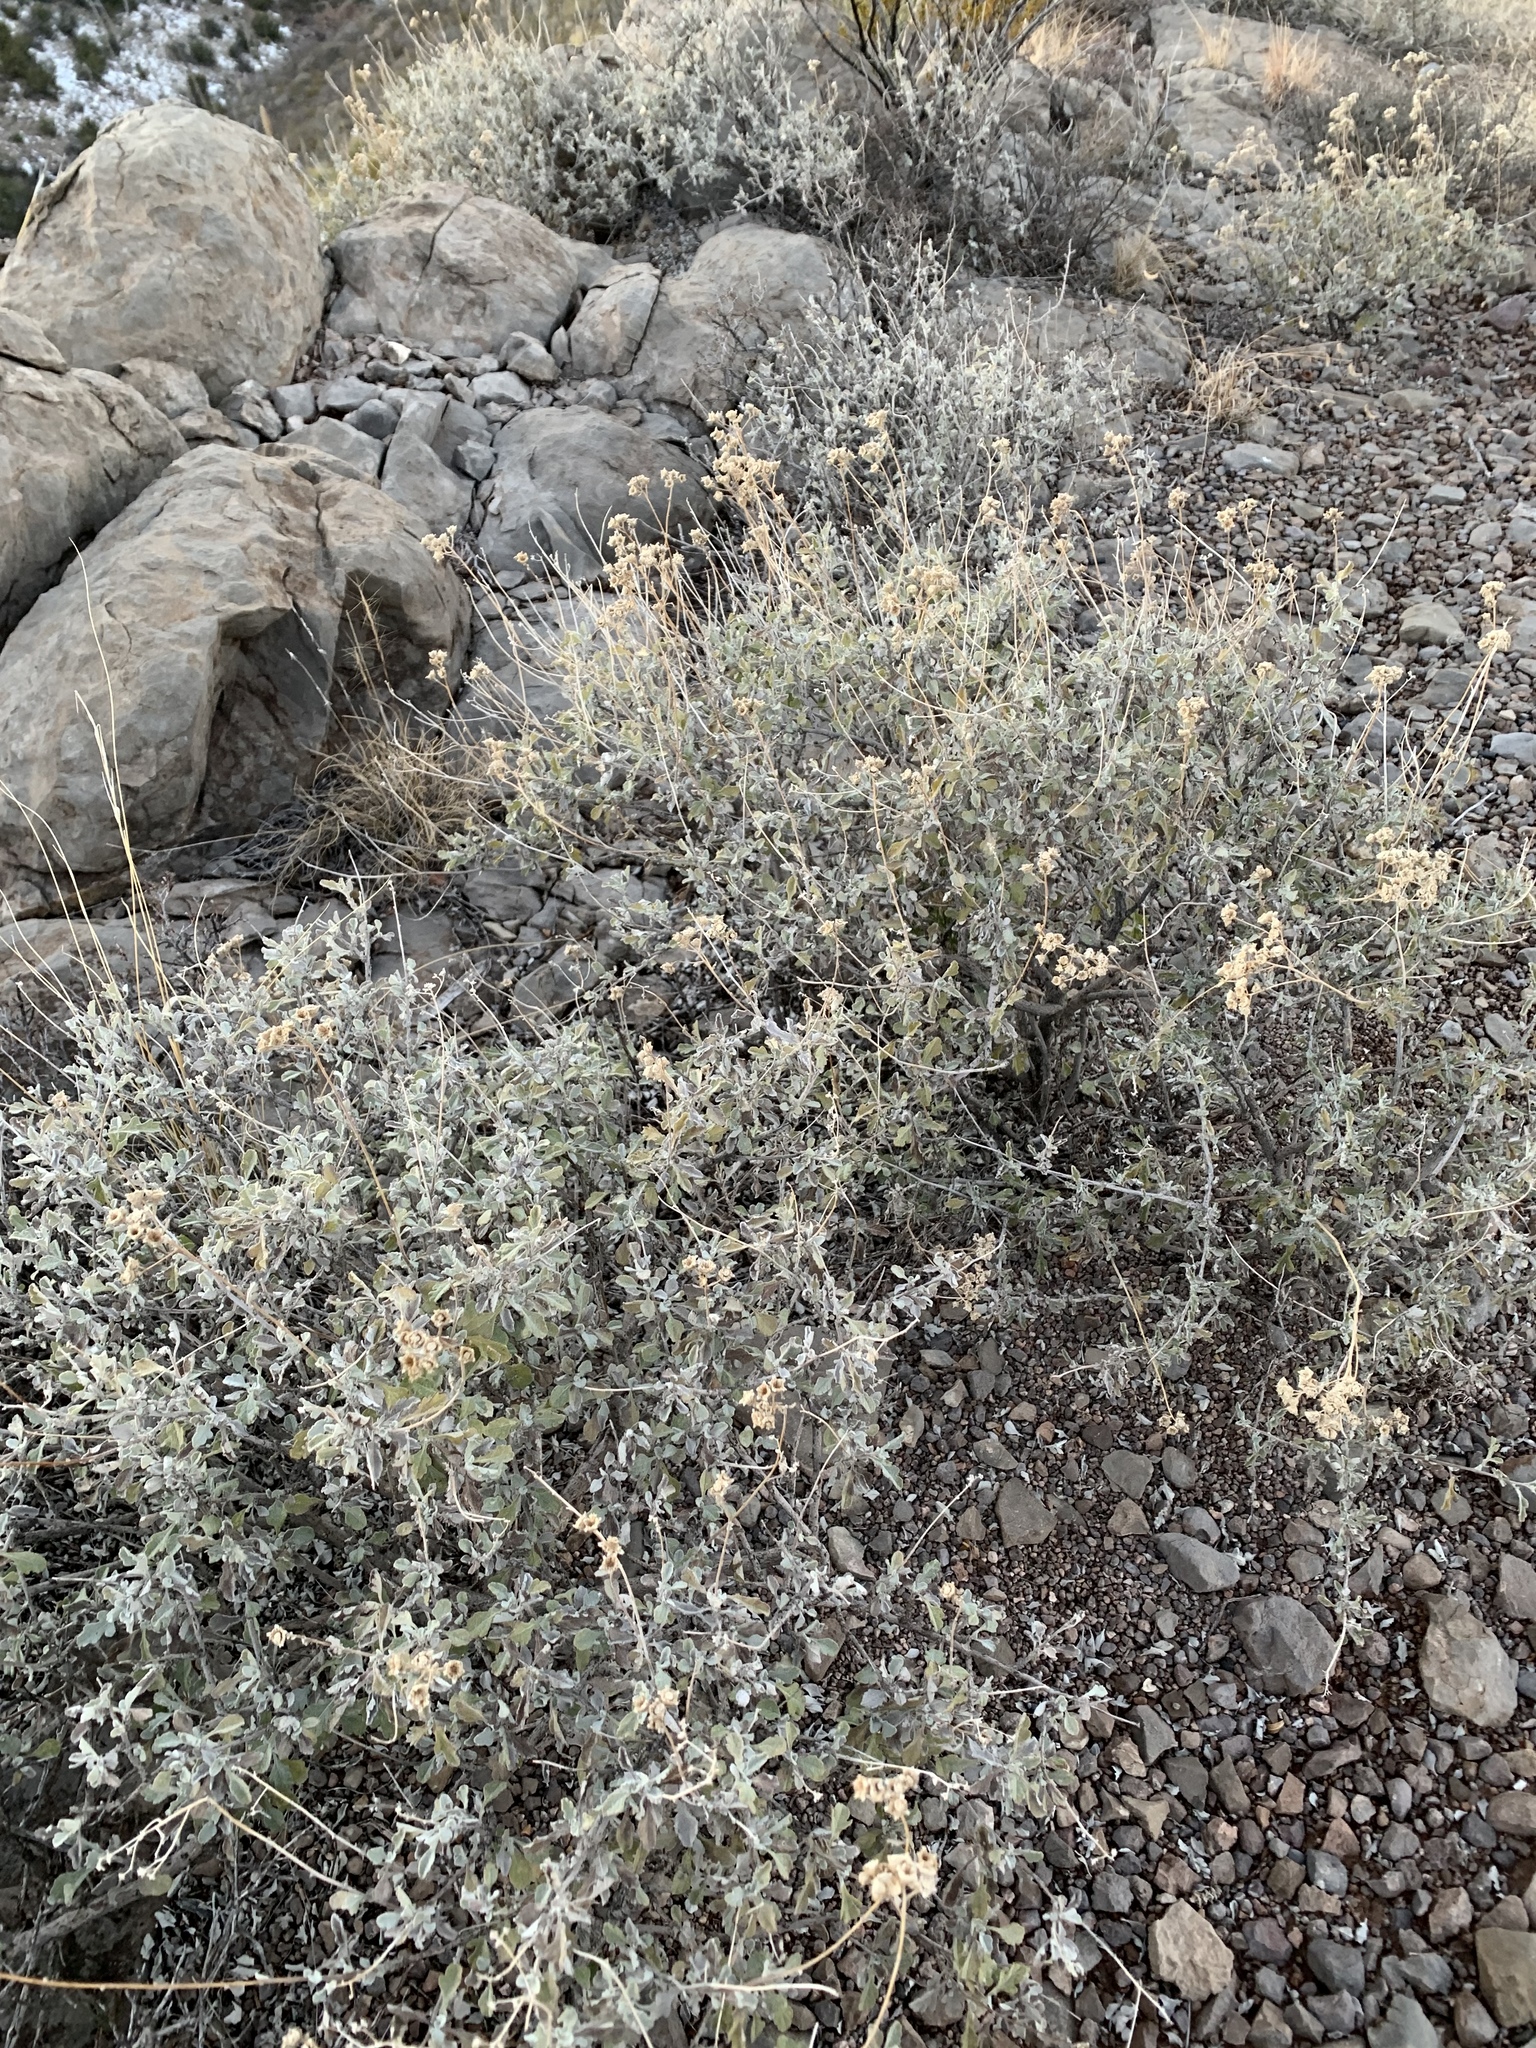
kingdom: Plantae
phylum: Tracheophyta
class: Magnoliopsida
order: Asterales
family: Asteraceae
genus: Parthenium
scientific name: Parthenium incanum
